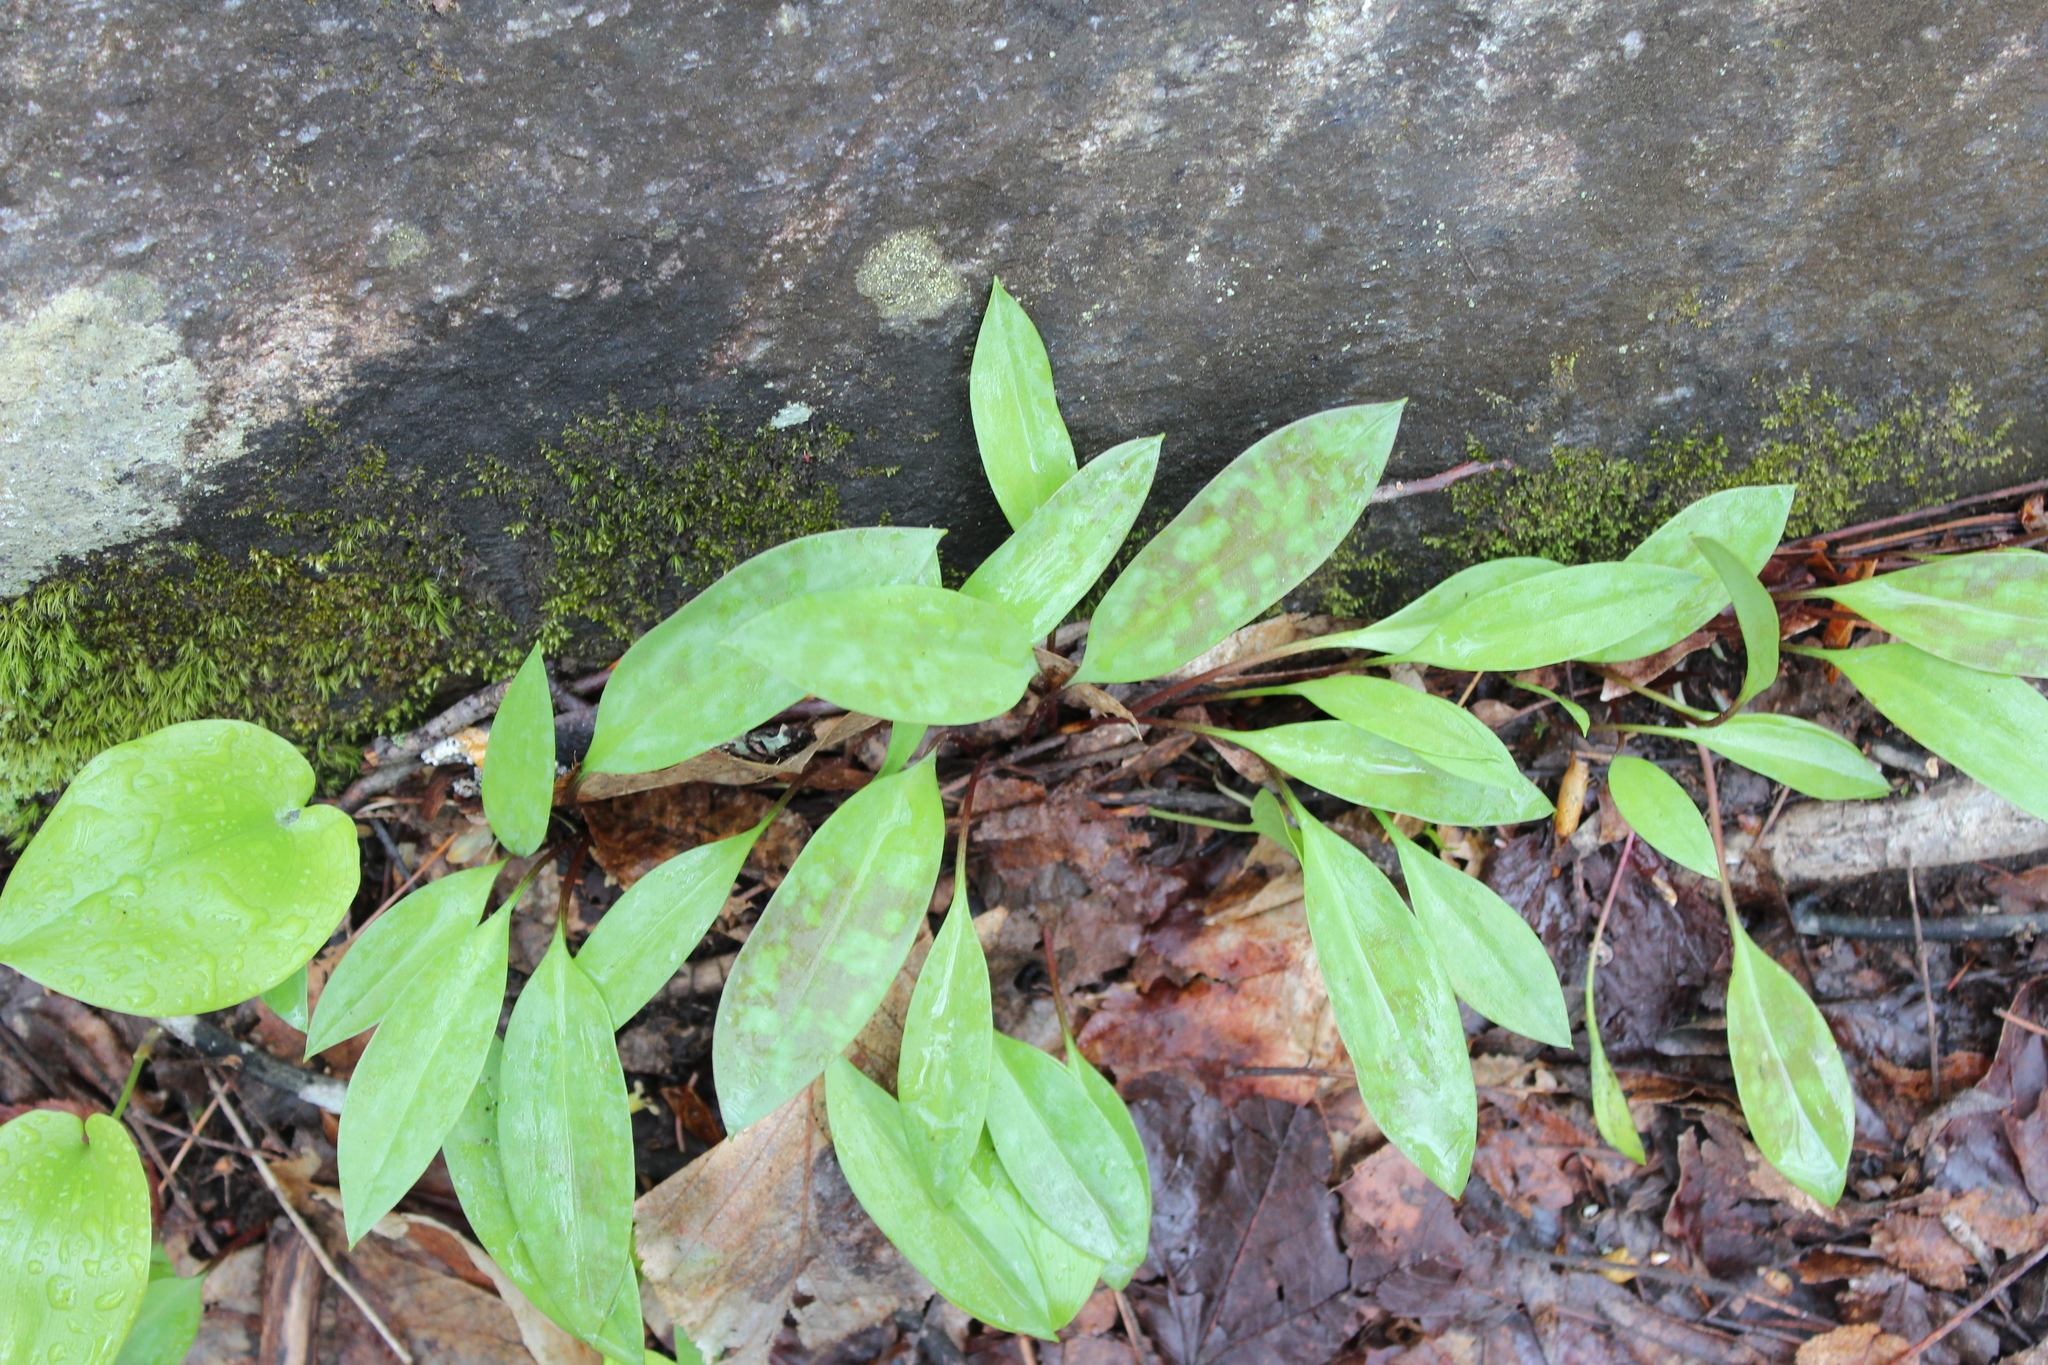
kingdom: Plantae
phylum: Tracheophyta
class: Liliopsida
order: Liliales
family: Liliaceae
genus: Erythronium
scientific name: Erythronium americanum
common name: Yellow adder's-tongue
